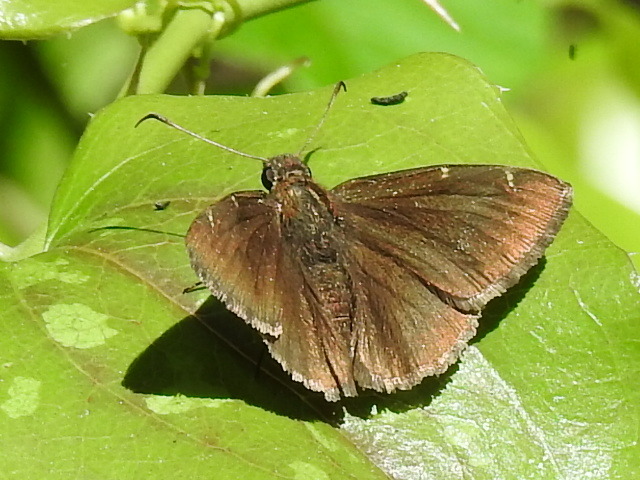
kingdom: Animalia
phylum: Arthropoda
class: Insecta
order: Lepidoptera
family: Hesperiidae
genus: Thorybes
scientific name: Thorybes pylades
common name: Northern cloudywing
